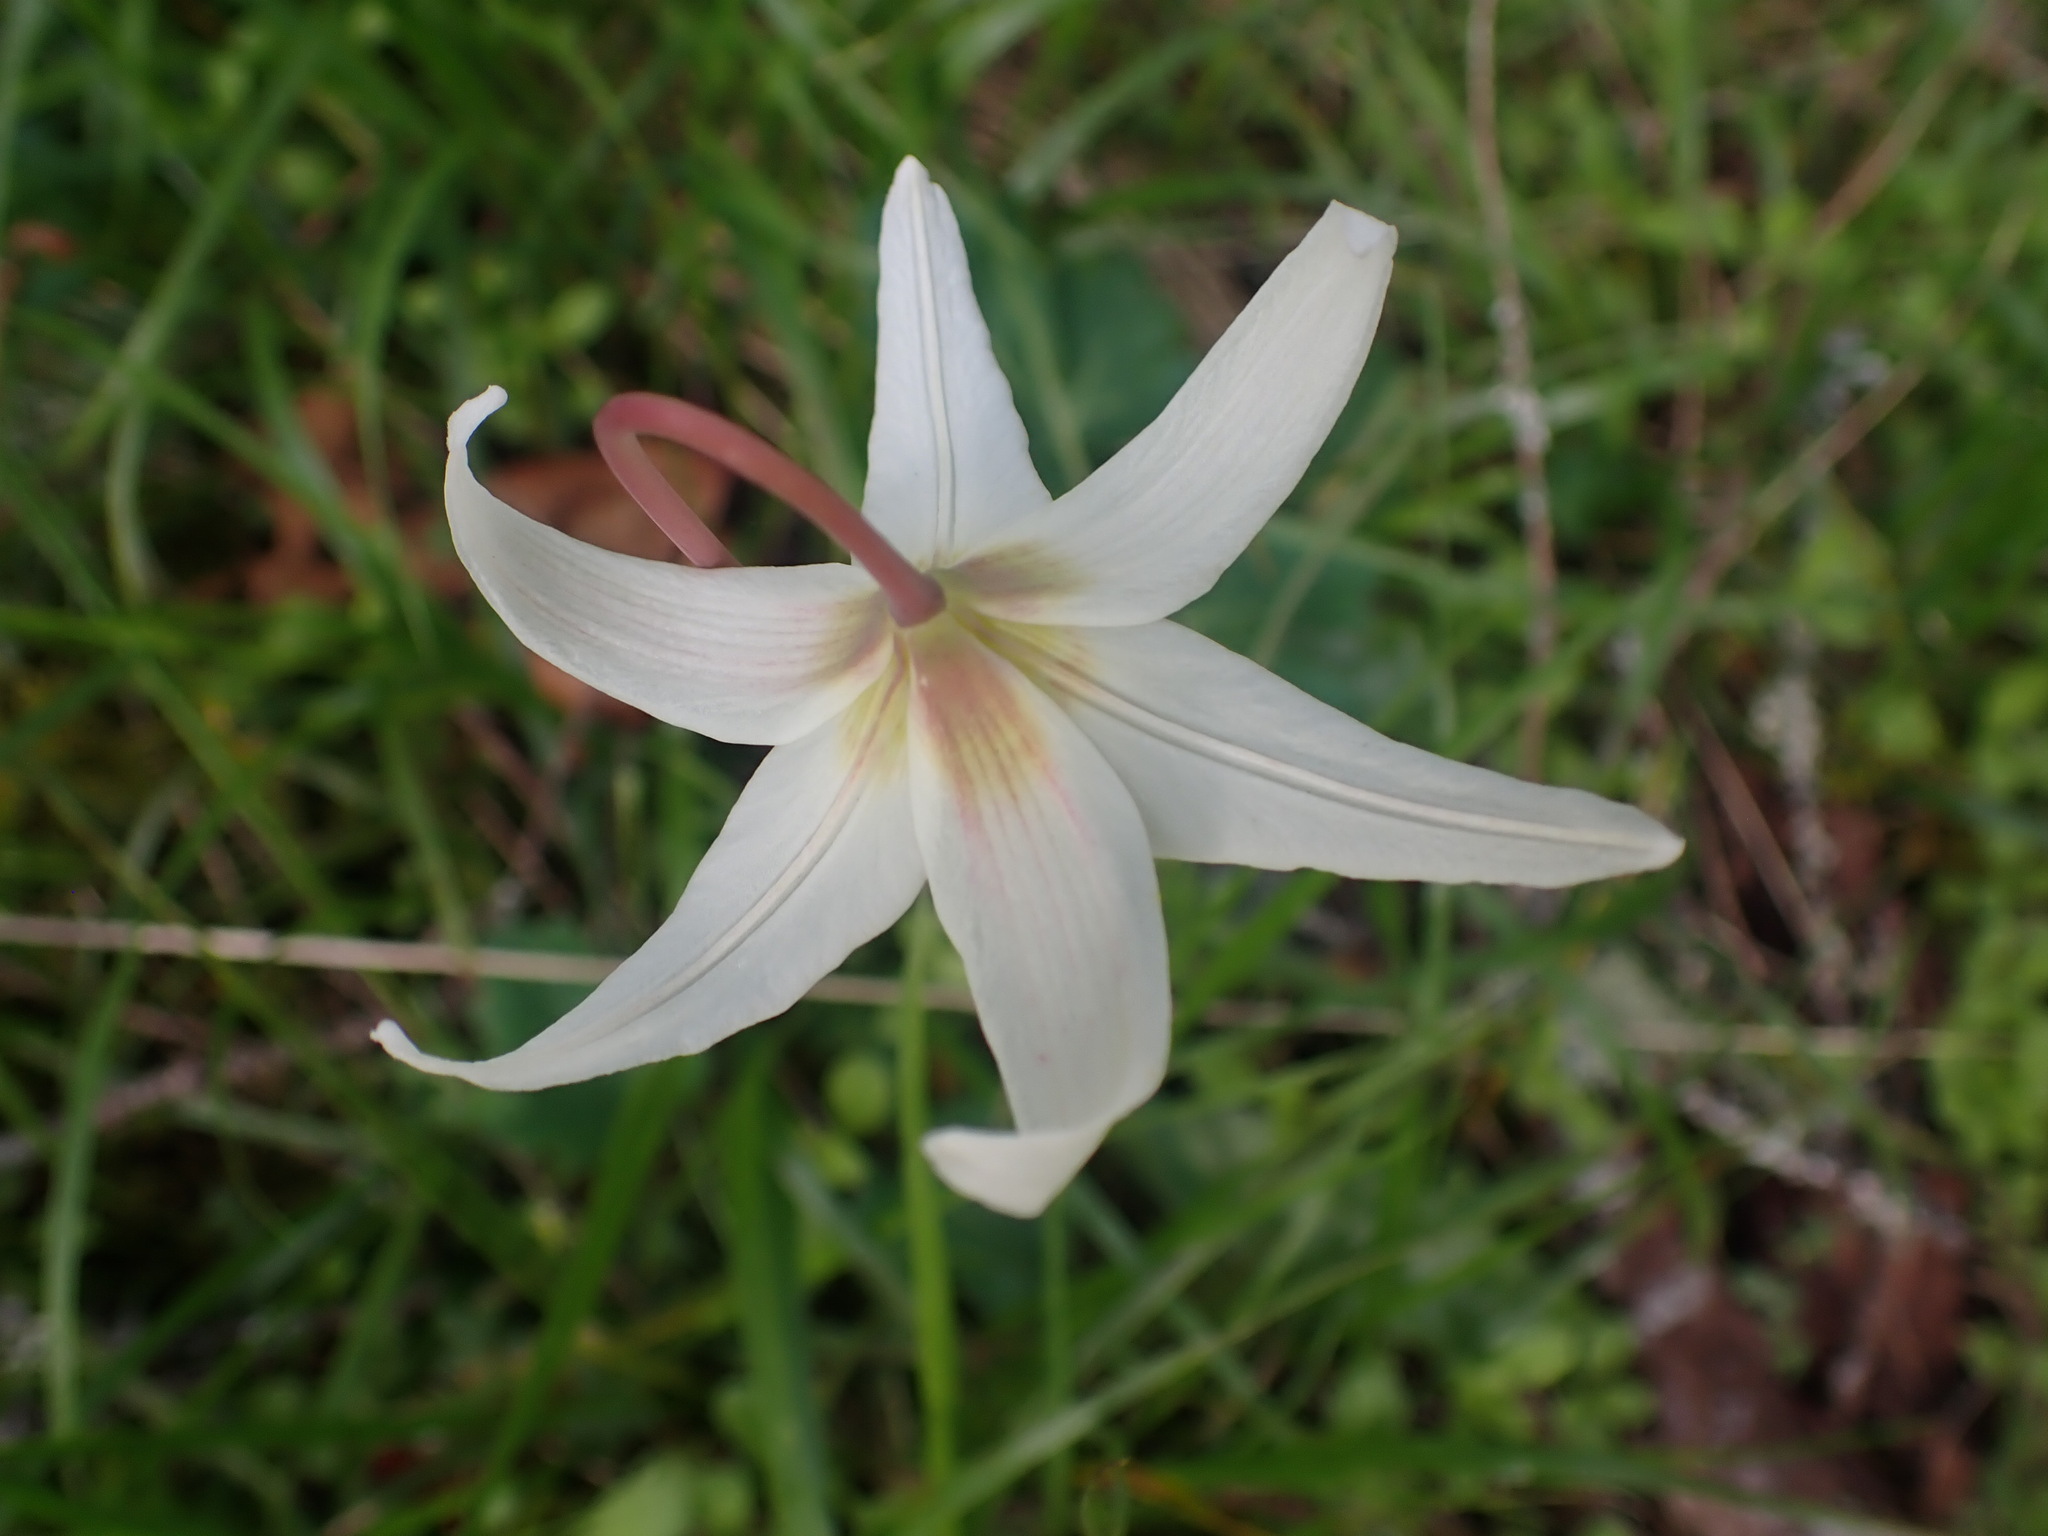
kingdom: Plantae
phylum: Tracheophyta
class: Liliopsida
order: Liliales
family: Liliaceae
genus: Erythronium
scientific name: Erythronium oregonum
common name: Giant adder's-tongue
